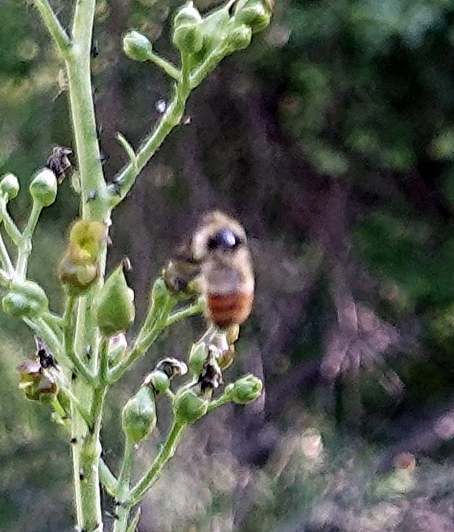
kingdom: Animalia
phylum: Arthropoda
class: Insecta
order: Hymenoptera
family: Apidae
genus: Bombus
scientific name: Bombus centralis
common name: Central bumble bee
